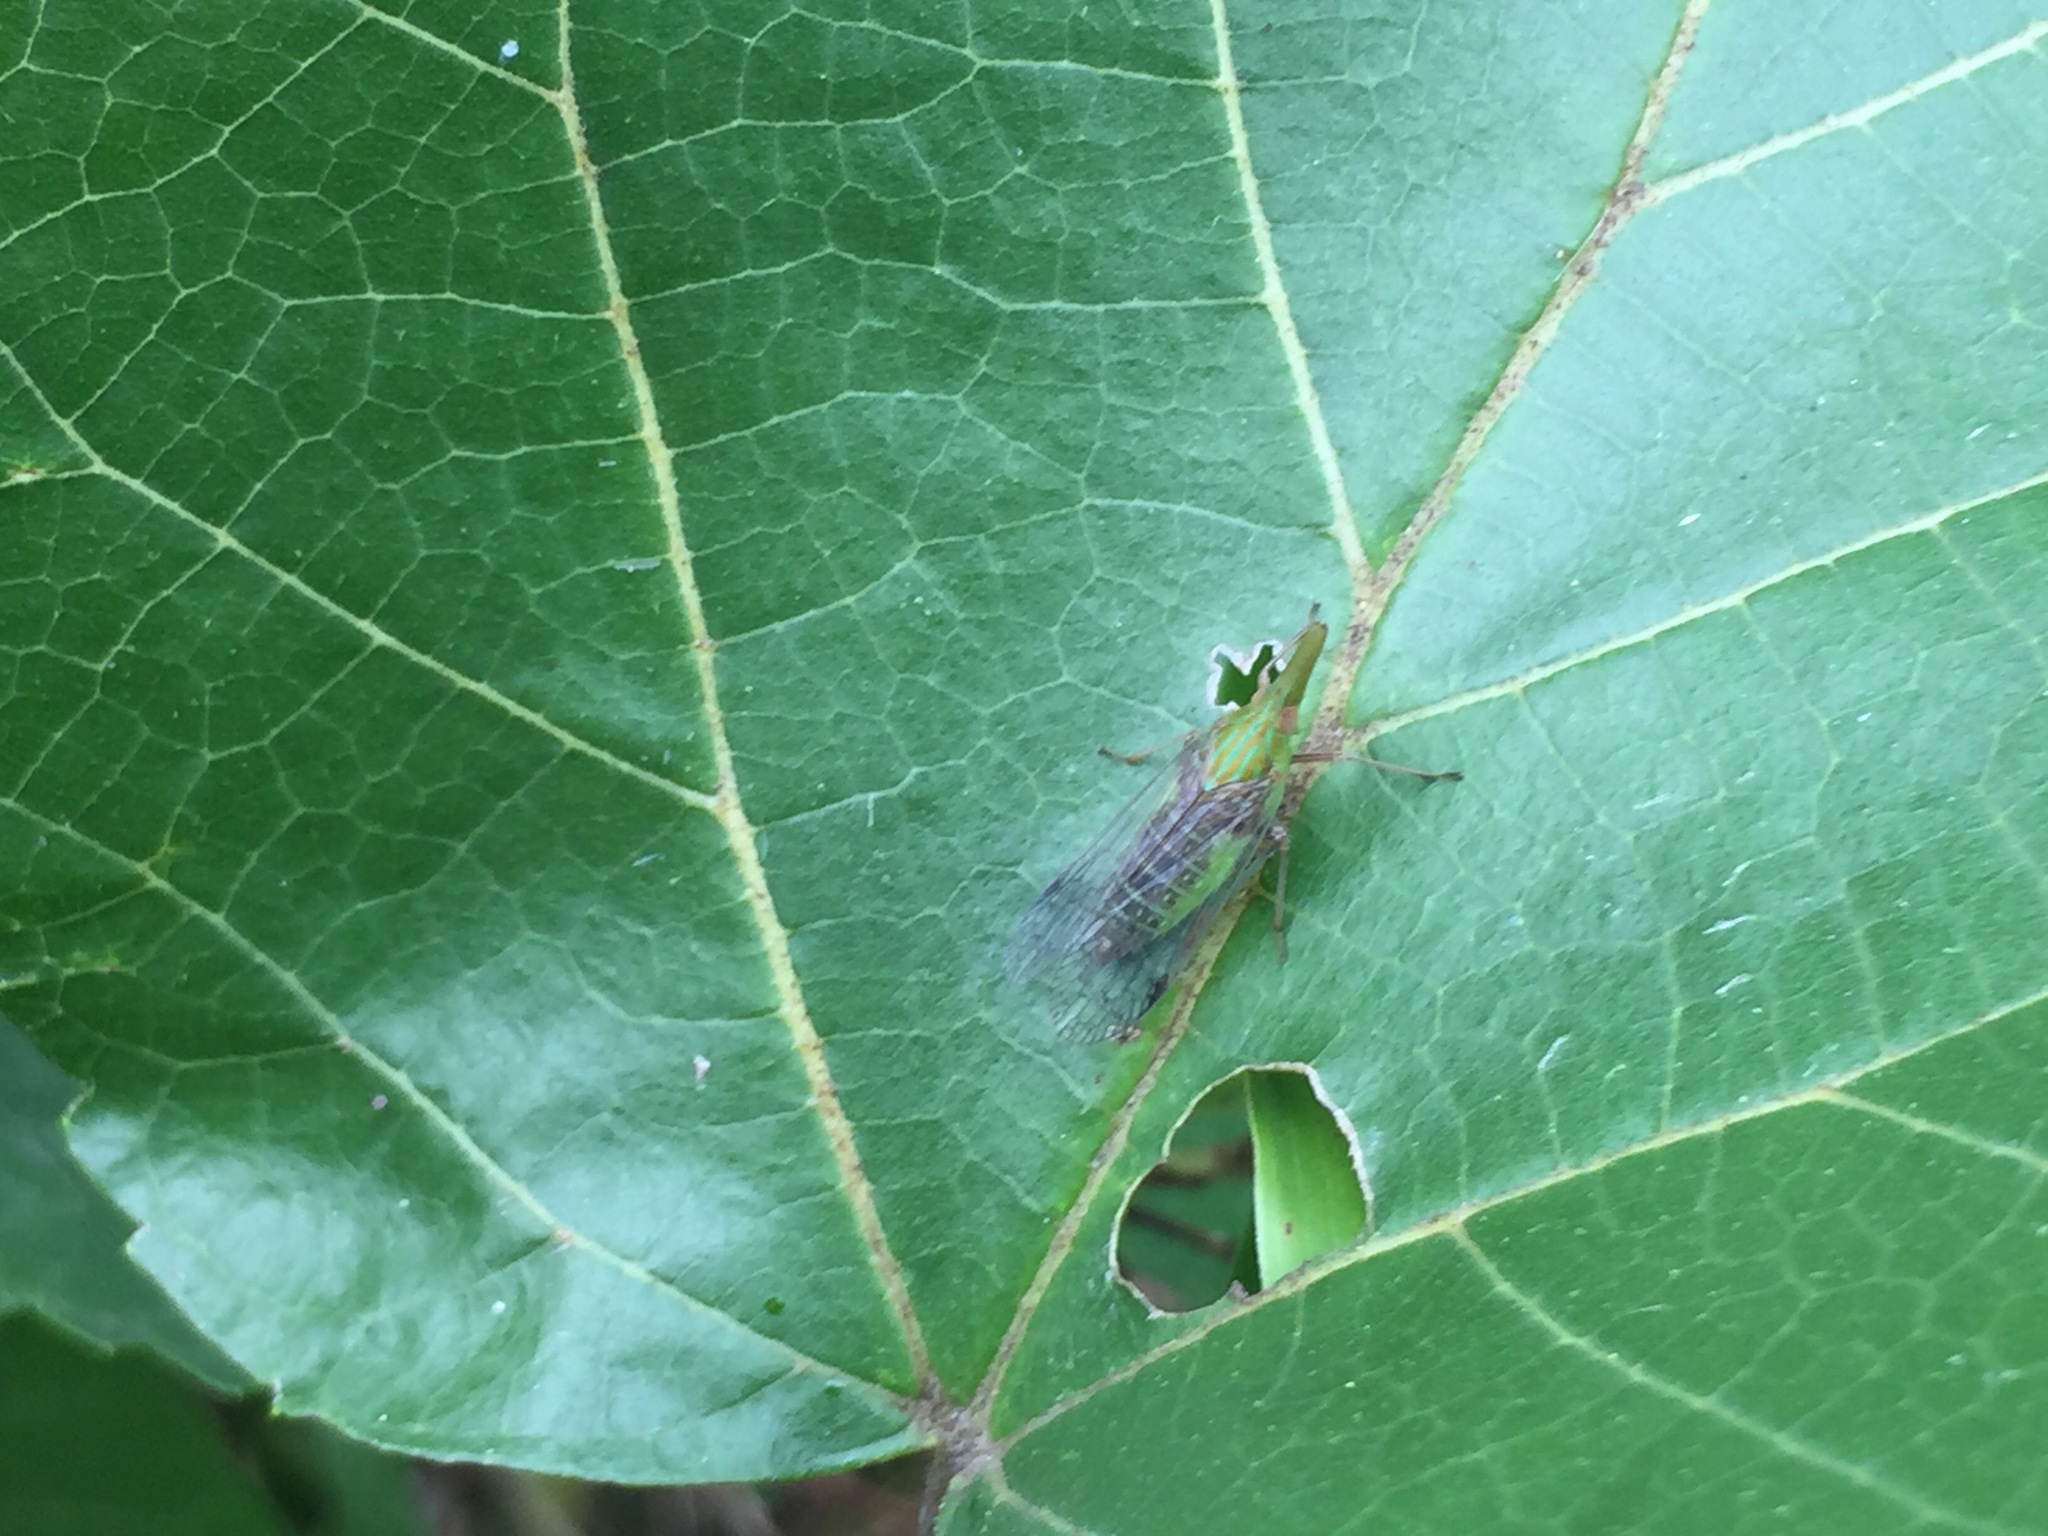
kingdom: Animalia
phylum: Arthropoda
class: Insecta
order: Hemiptera
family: Dictyopharidae
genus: Raivuna
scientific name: Raivuna patruelis
